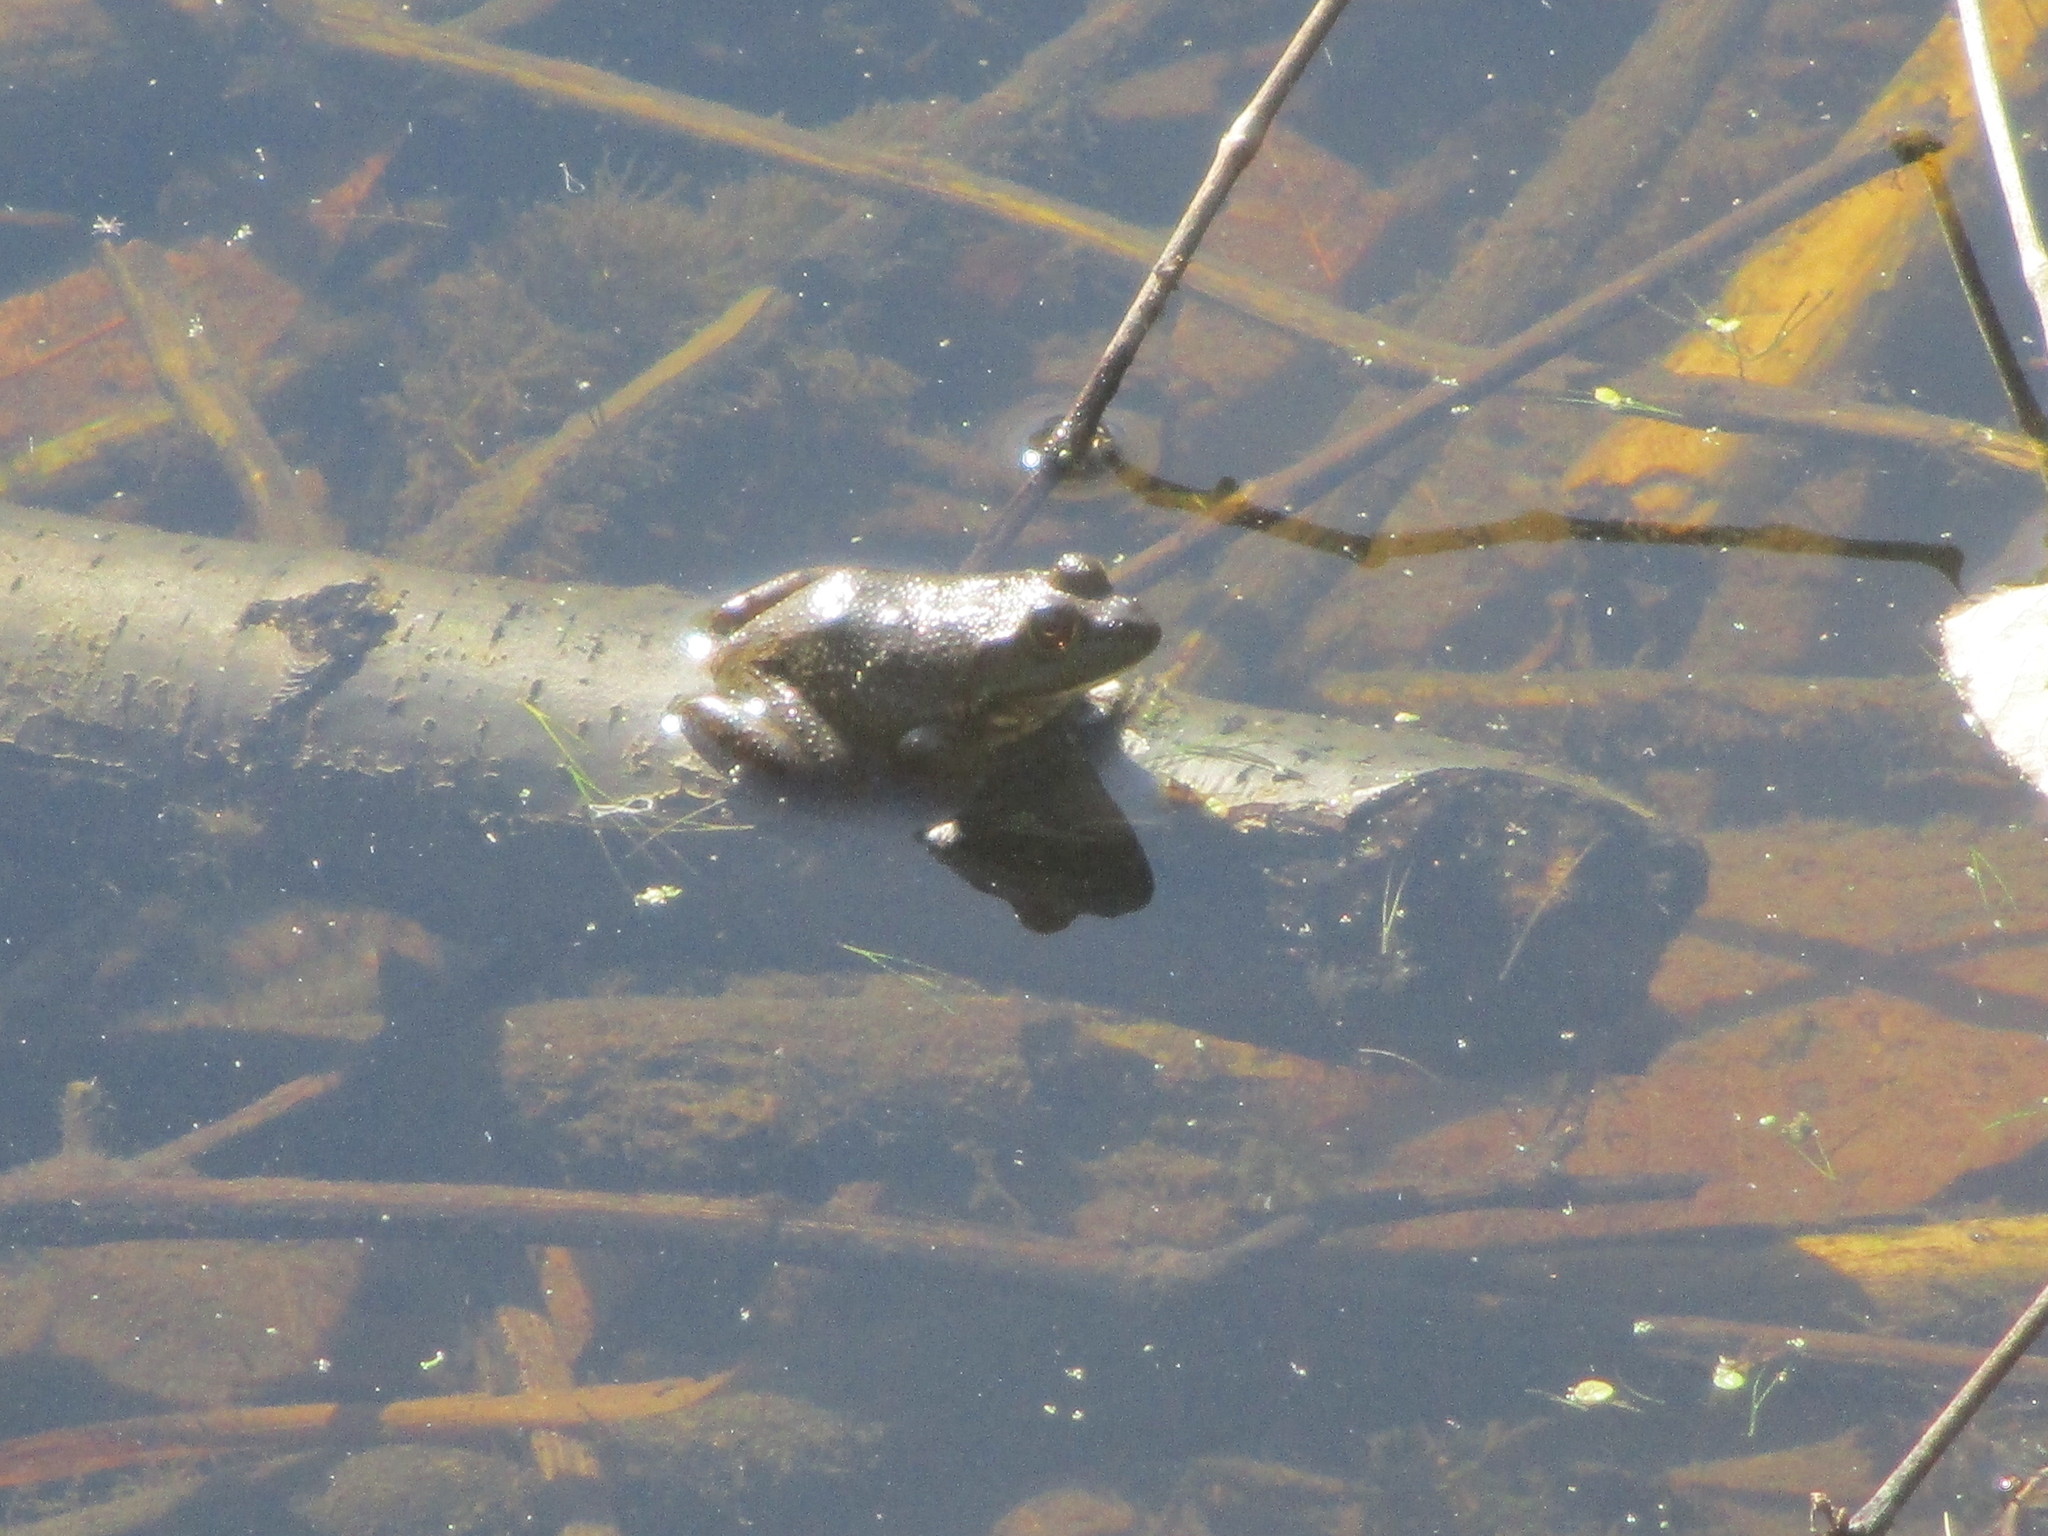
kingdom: Animalia
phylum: Chordata
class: Amphibia
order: Anura
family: Ranidae
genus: Lithobates
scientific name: Lithobates catesbeianus
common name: American bullfrog
